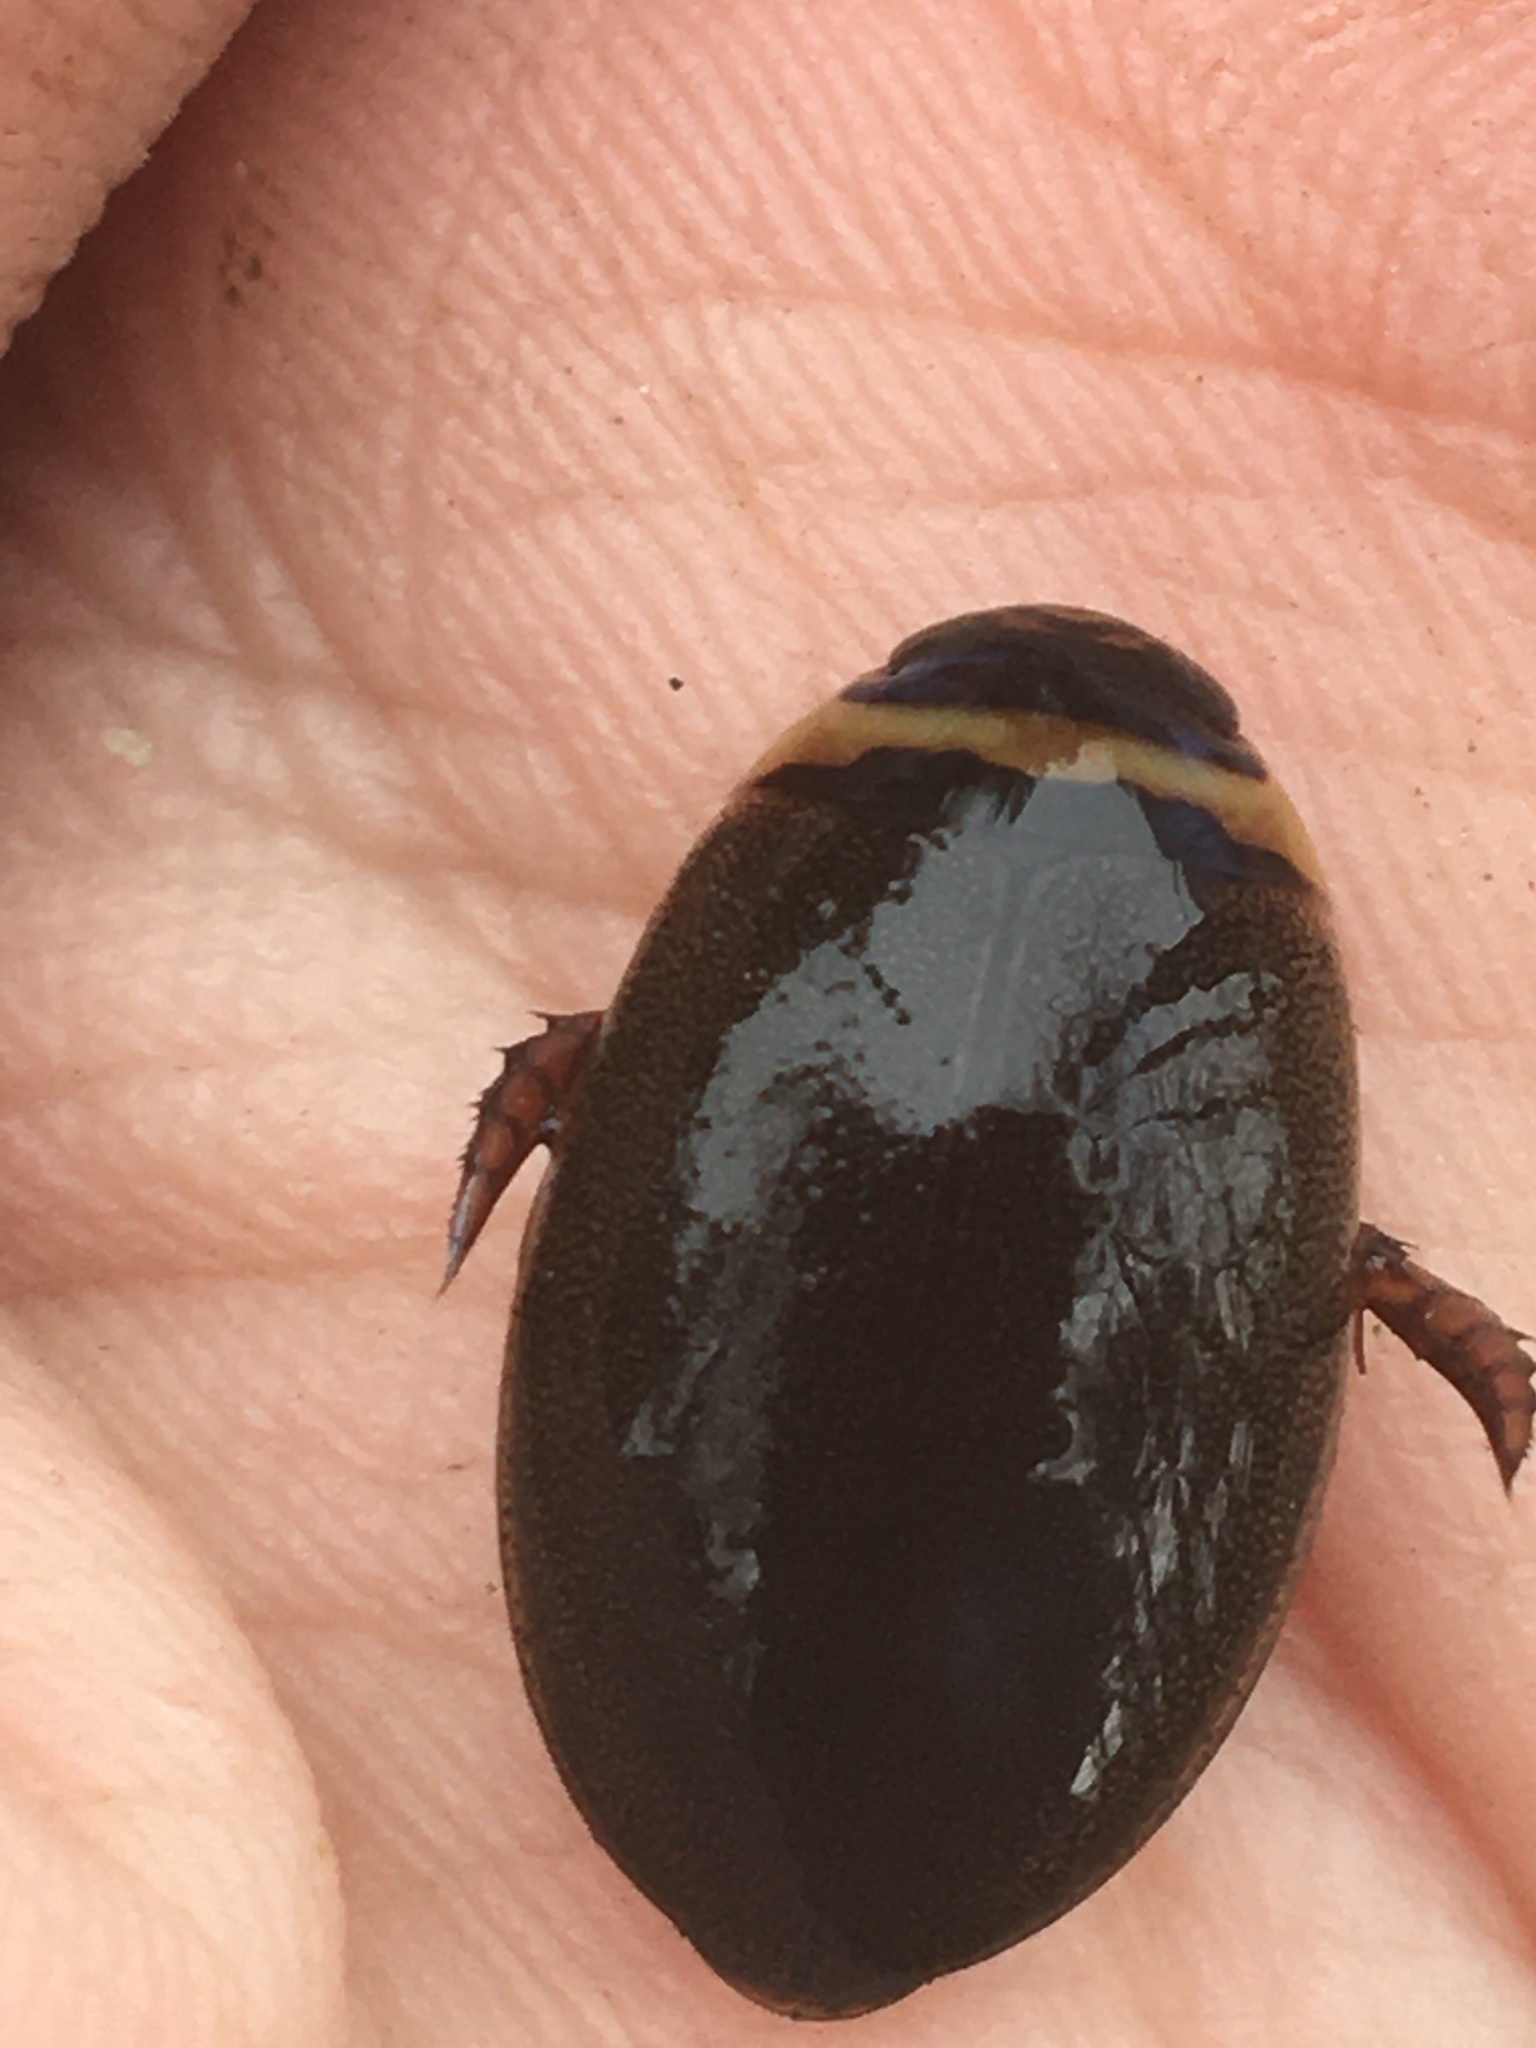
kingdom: Animalia
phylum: Arthropoda
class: Insecta
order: Coleoptera
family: Dytiscidae
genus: Graphoderus
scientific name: Graphoderus fascicollis
